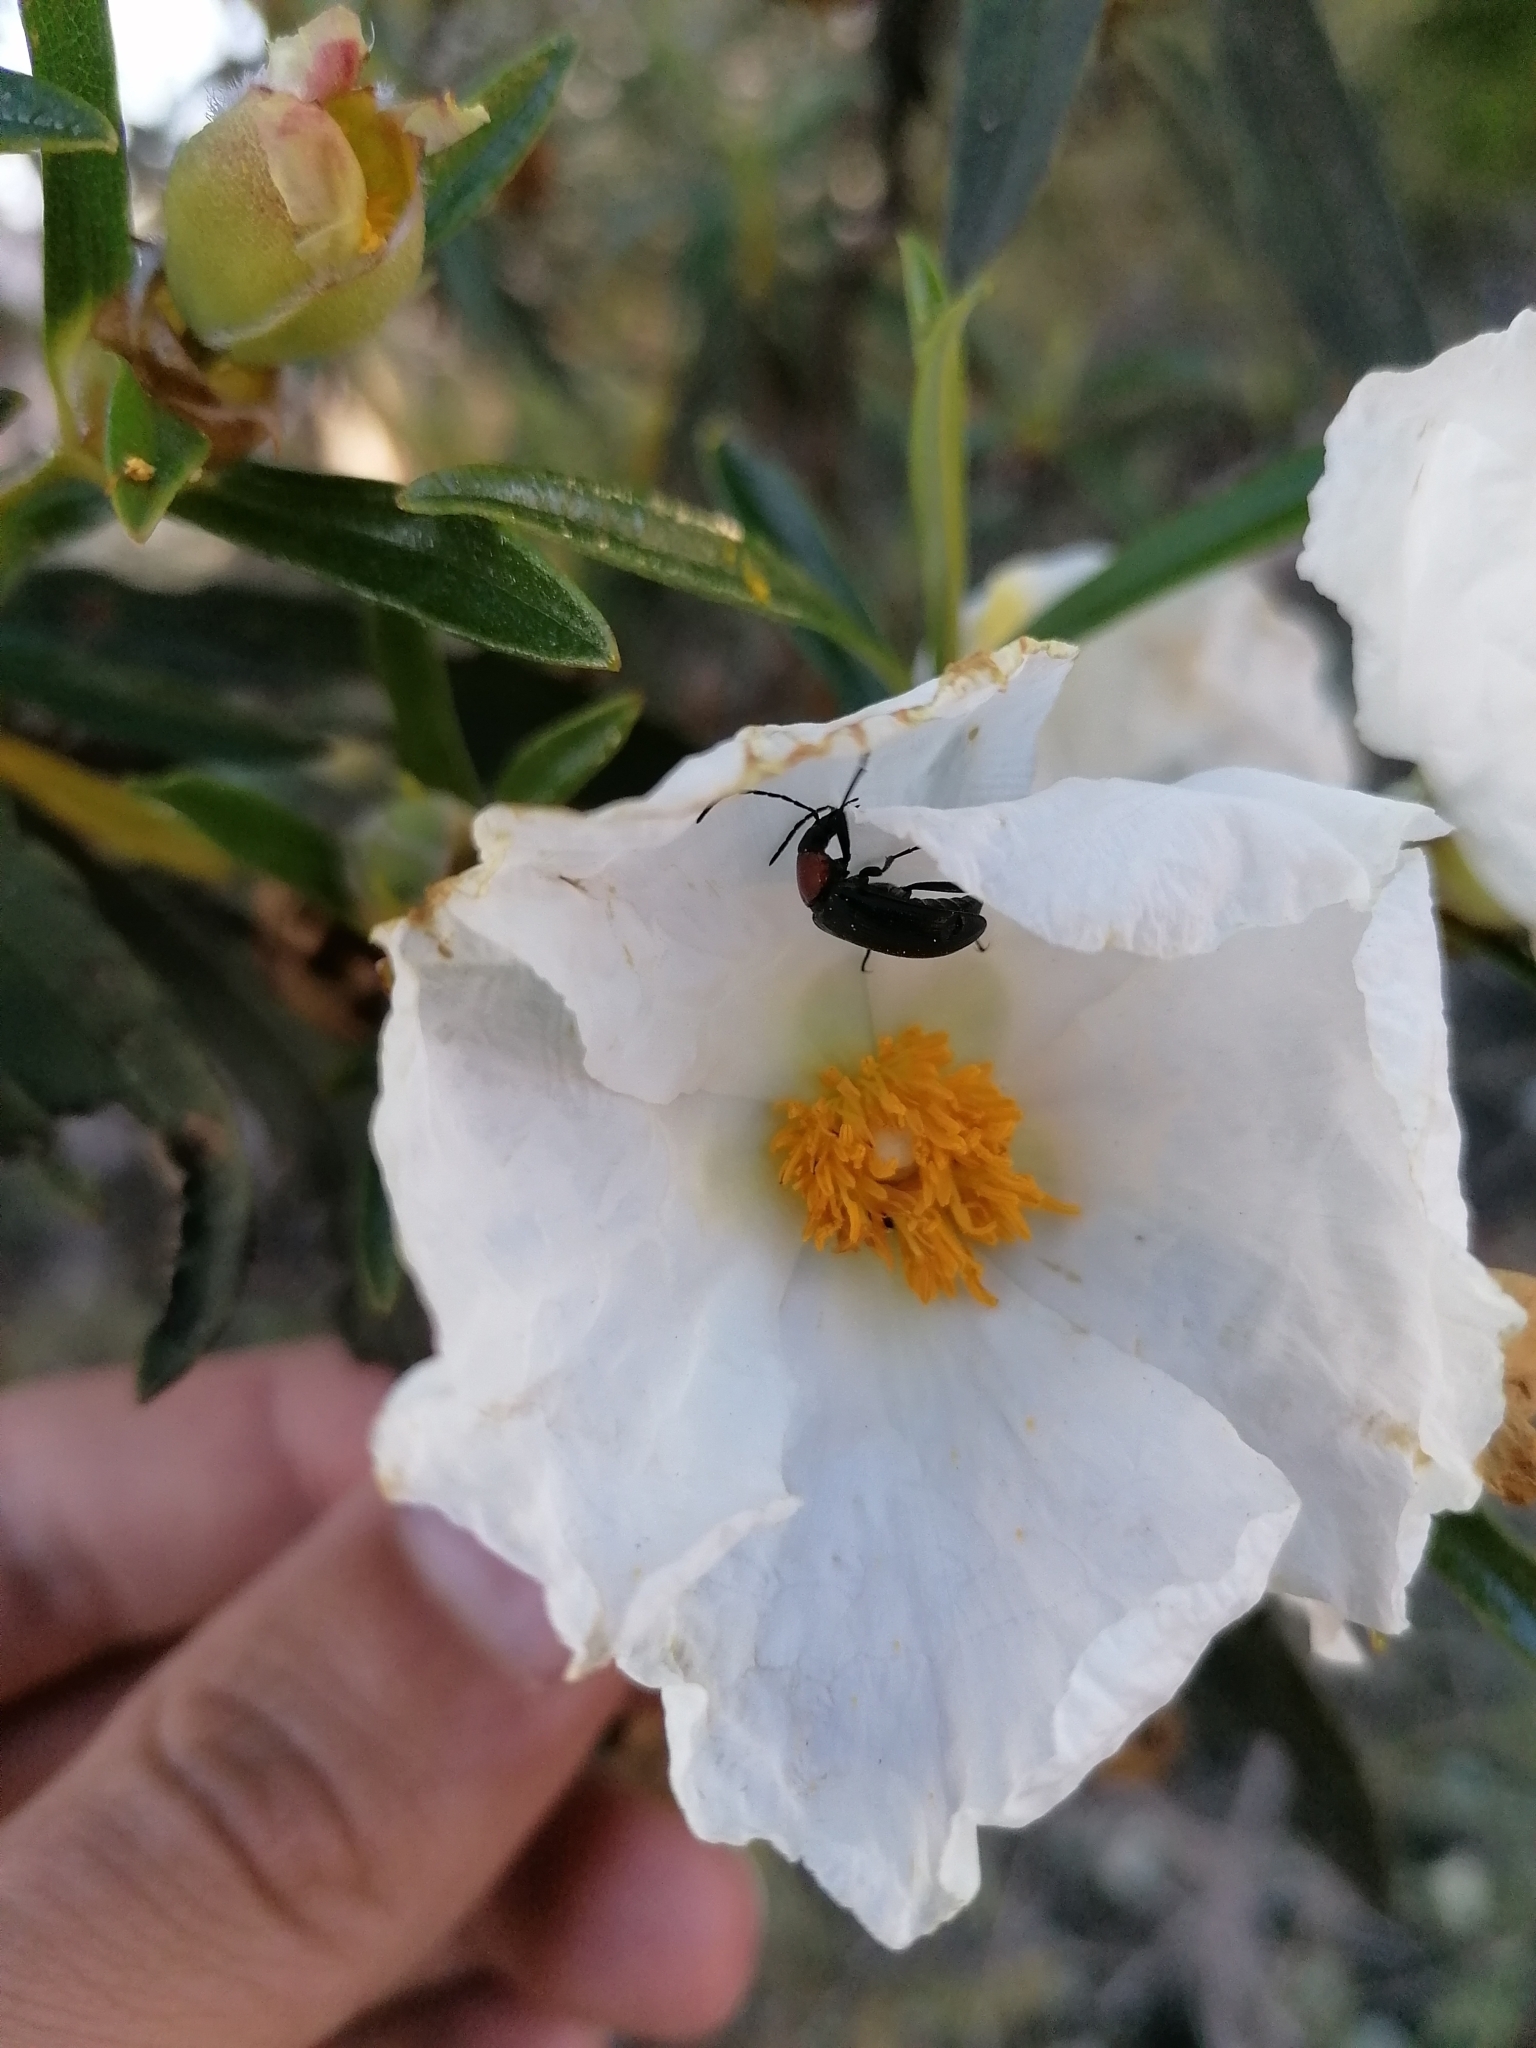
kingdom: Animalia
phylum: Arthropoda
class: Insecta
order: Coleoptera
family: Tenebrionidae
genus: Heliotaurus
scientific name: Heliotaurus ruficollis
